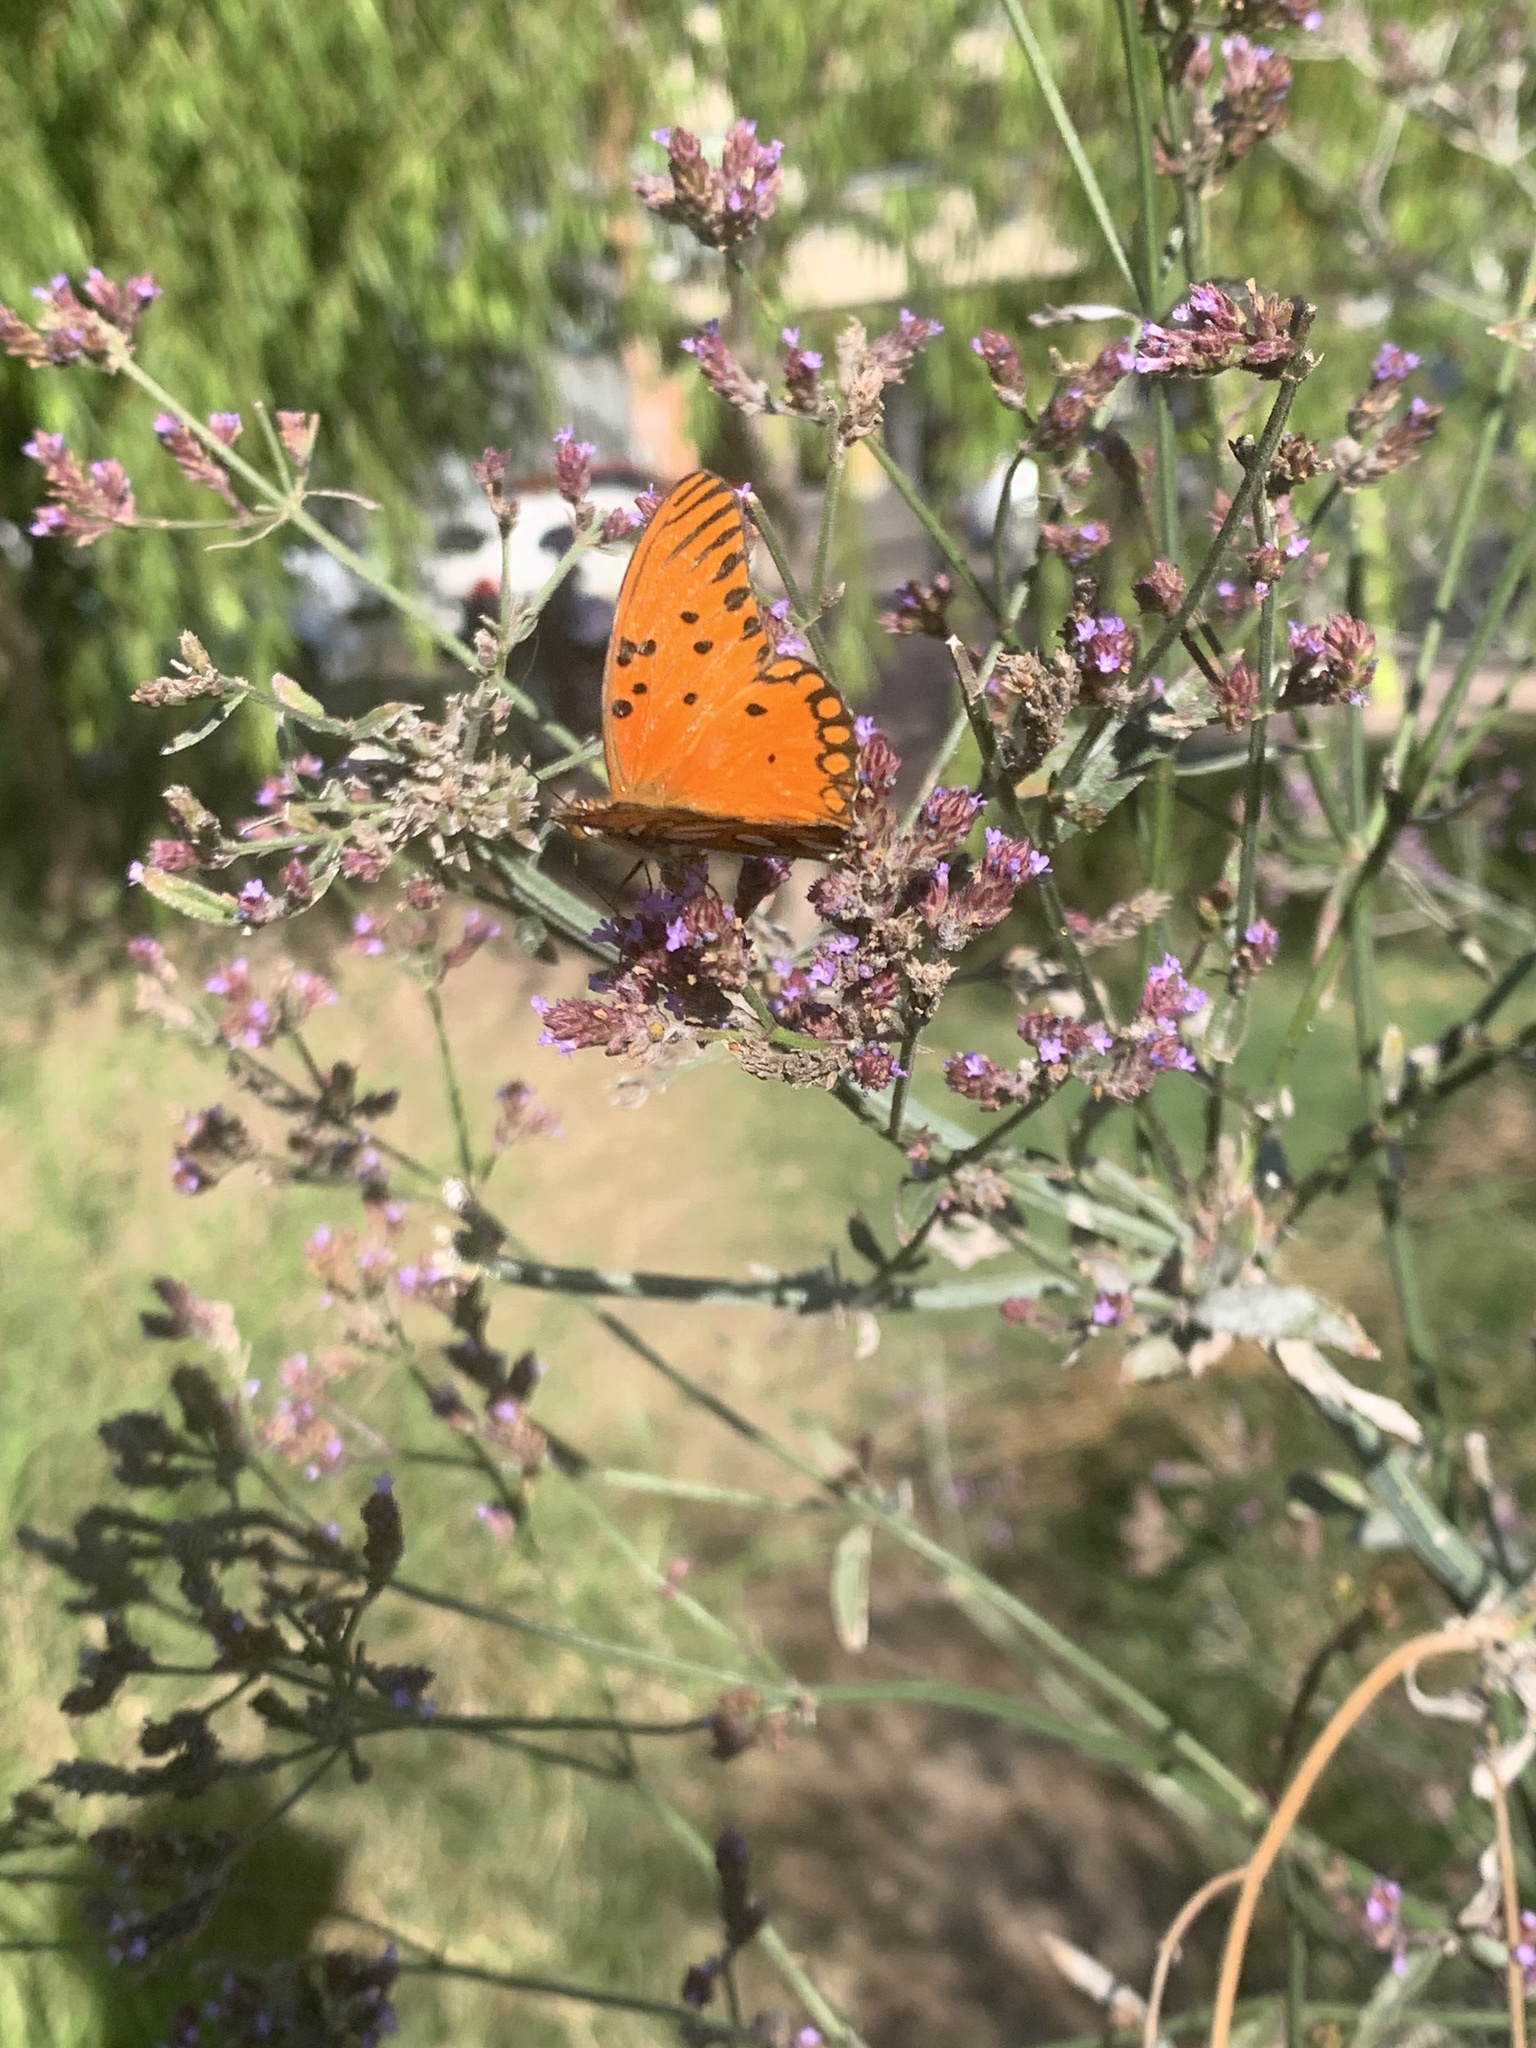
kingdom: Animalia
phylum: Arthropoda
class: Insecta
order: Lepidoptera
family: Nymphalidae
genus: Dione
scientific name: Dione vanillae
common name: Gulf fritillary
